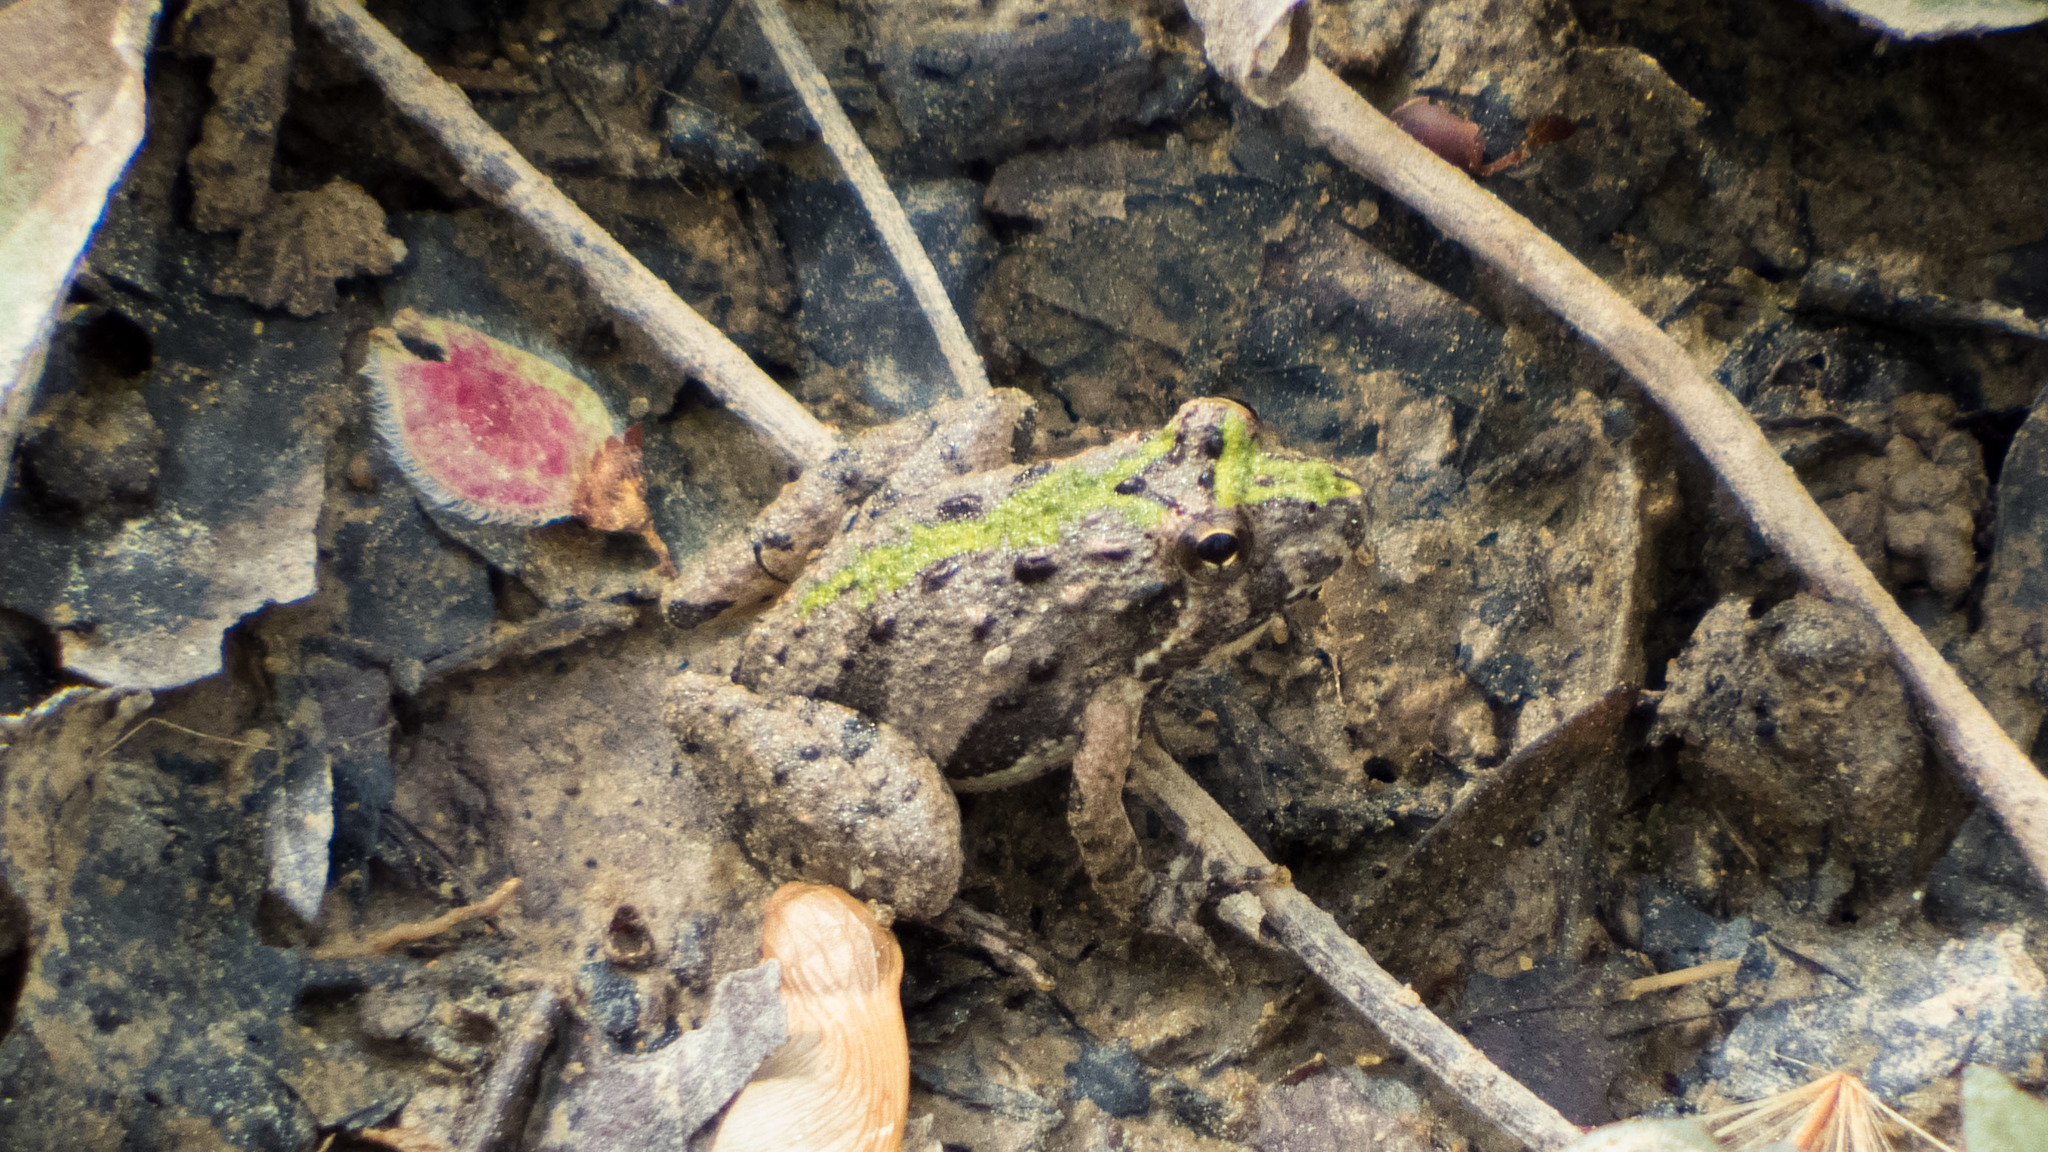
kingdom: Animalia
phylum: Chordata
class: Amphibia
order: Anura
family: Hylidae
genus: Acris
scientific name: Acris crepitans
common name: Northern cricket frog
